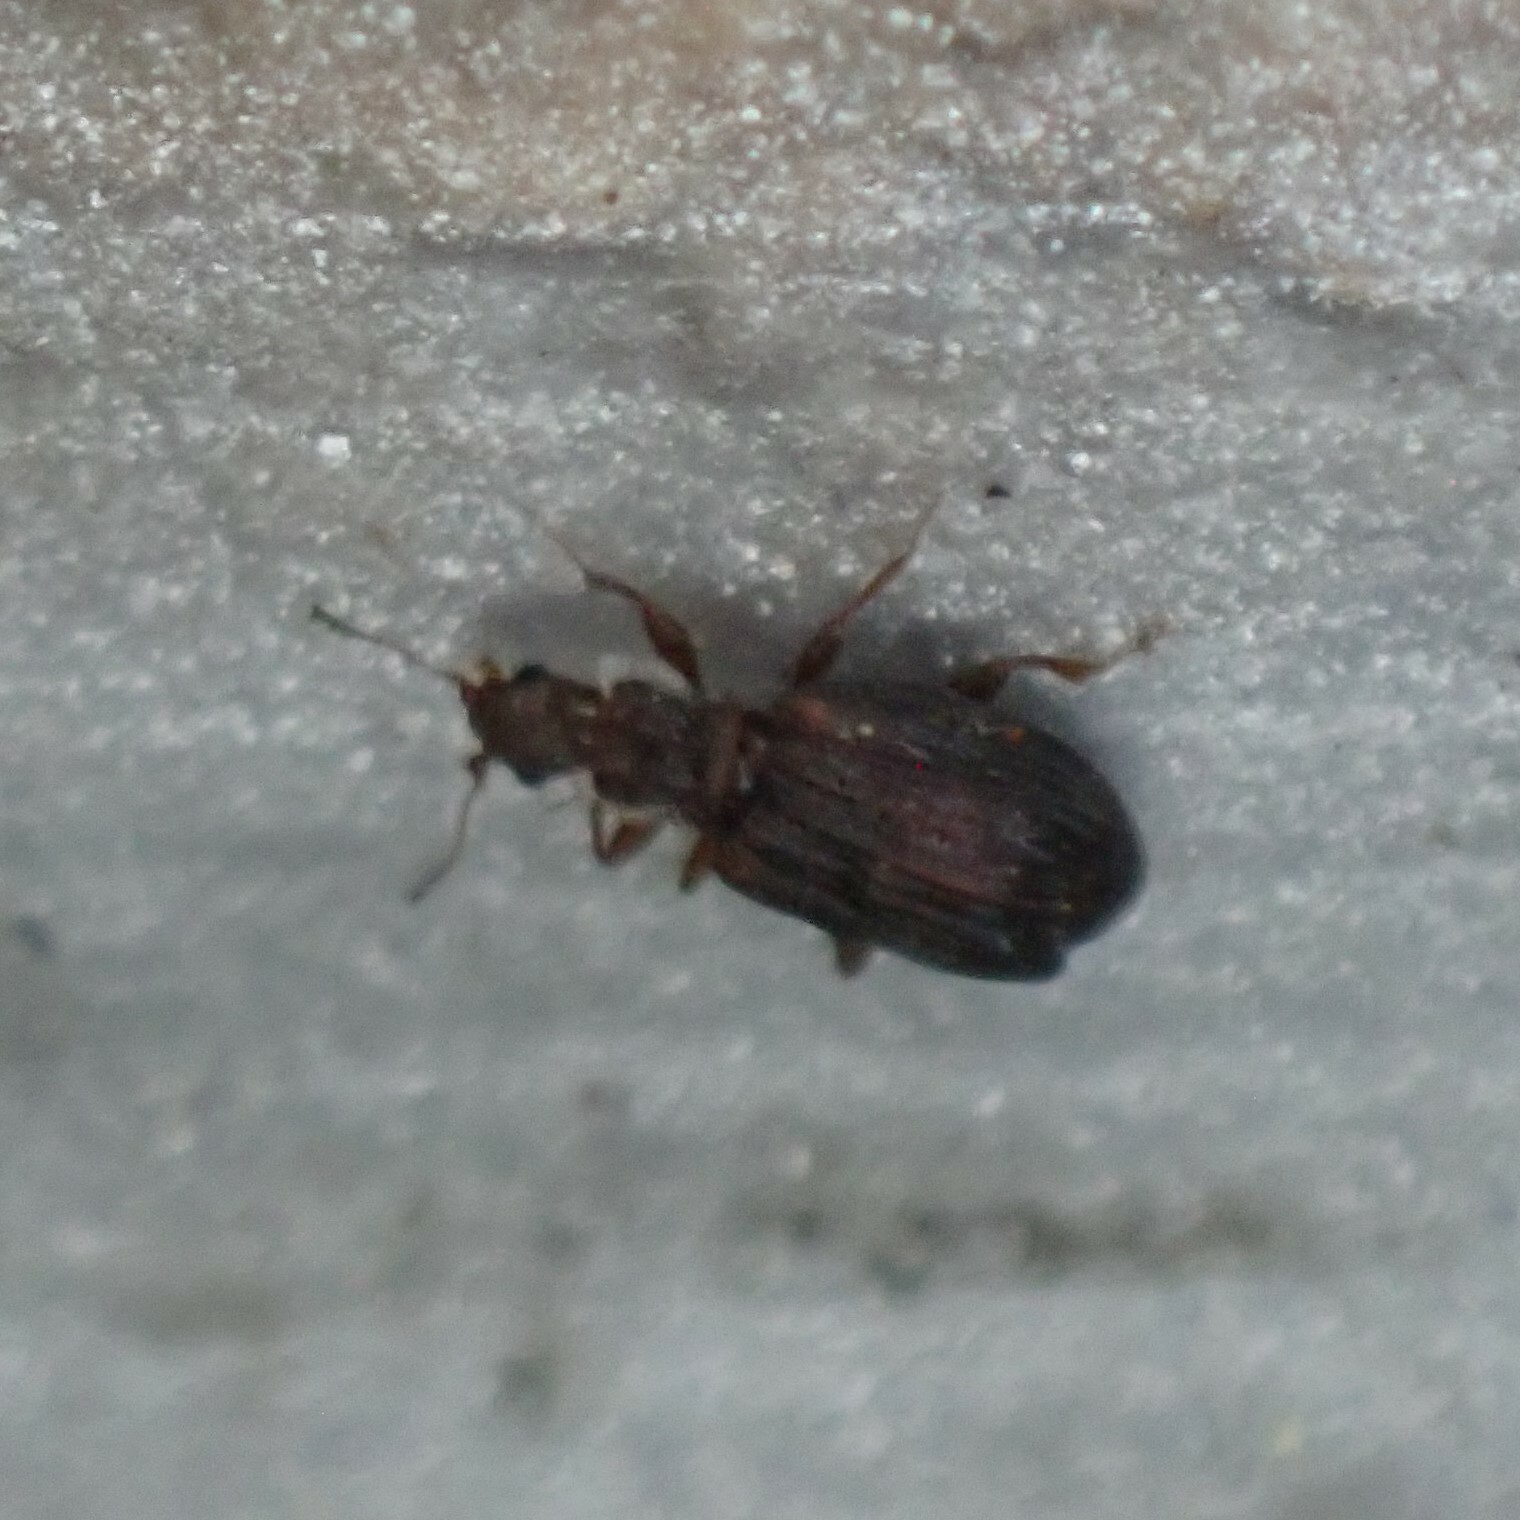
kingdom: Animalia
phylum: Arthropoda
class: Insecta
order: Coleoptera
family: Latridiidae
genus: Cartodere
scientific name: Cartodere nodifer
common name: Humpbacked minute scavenger beetle
